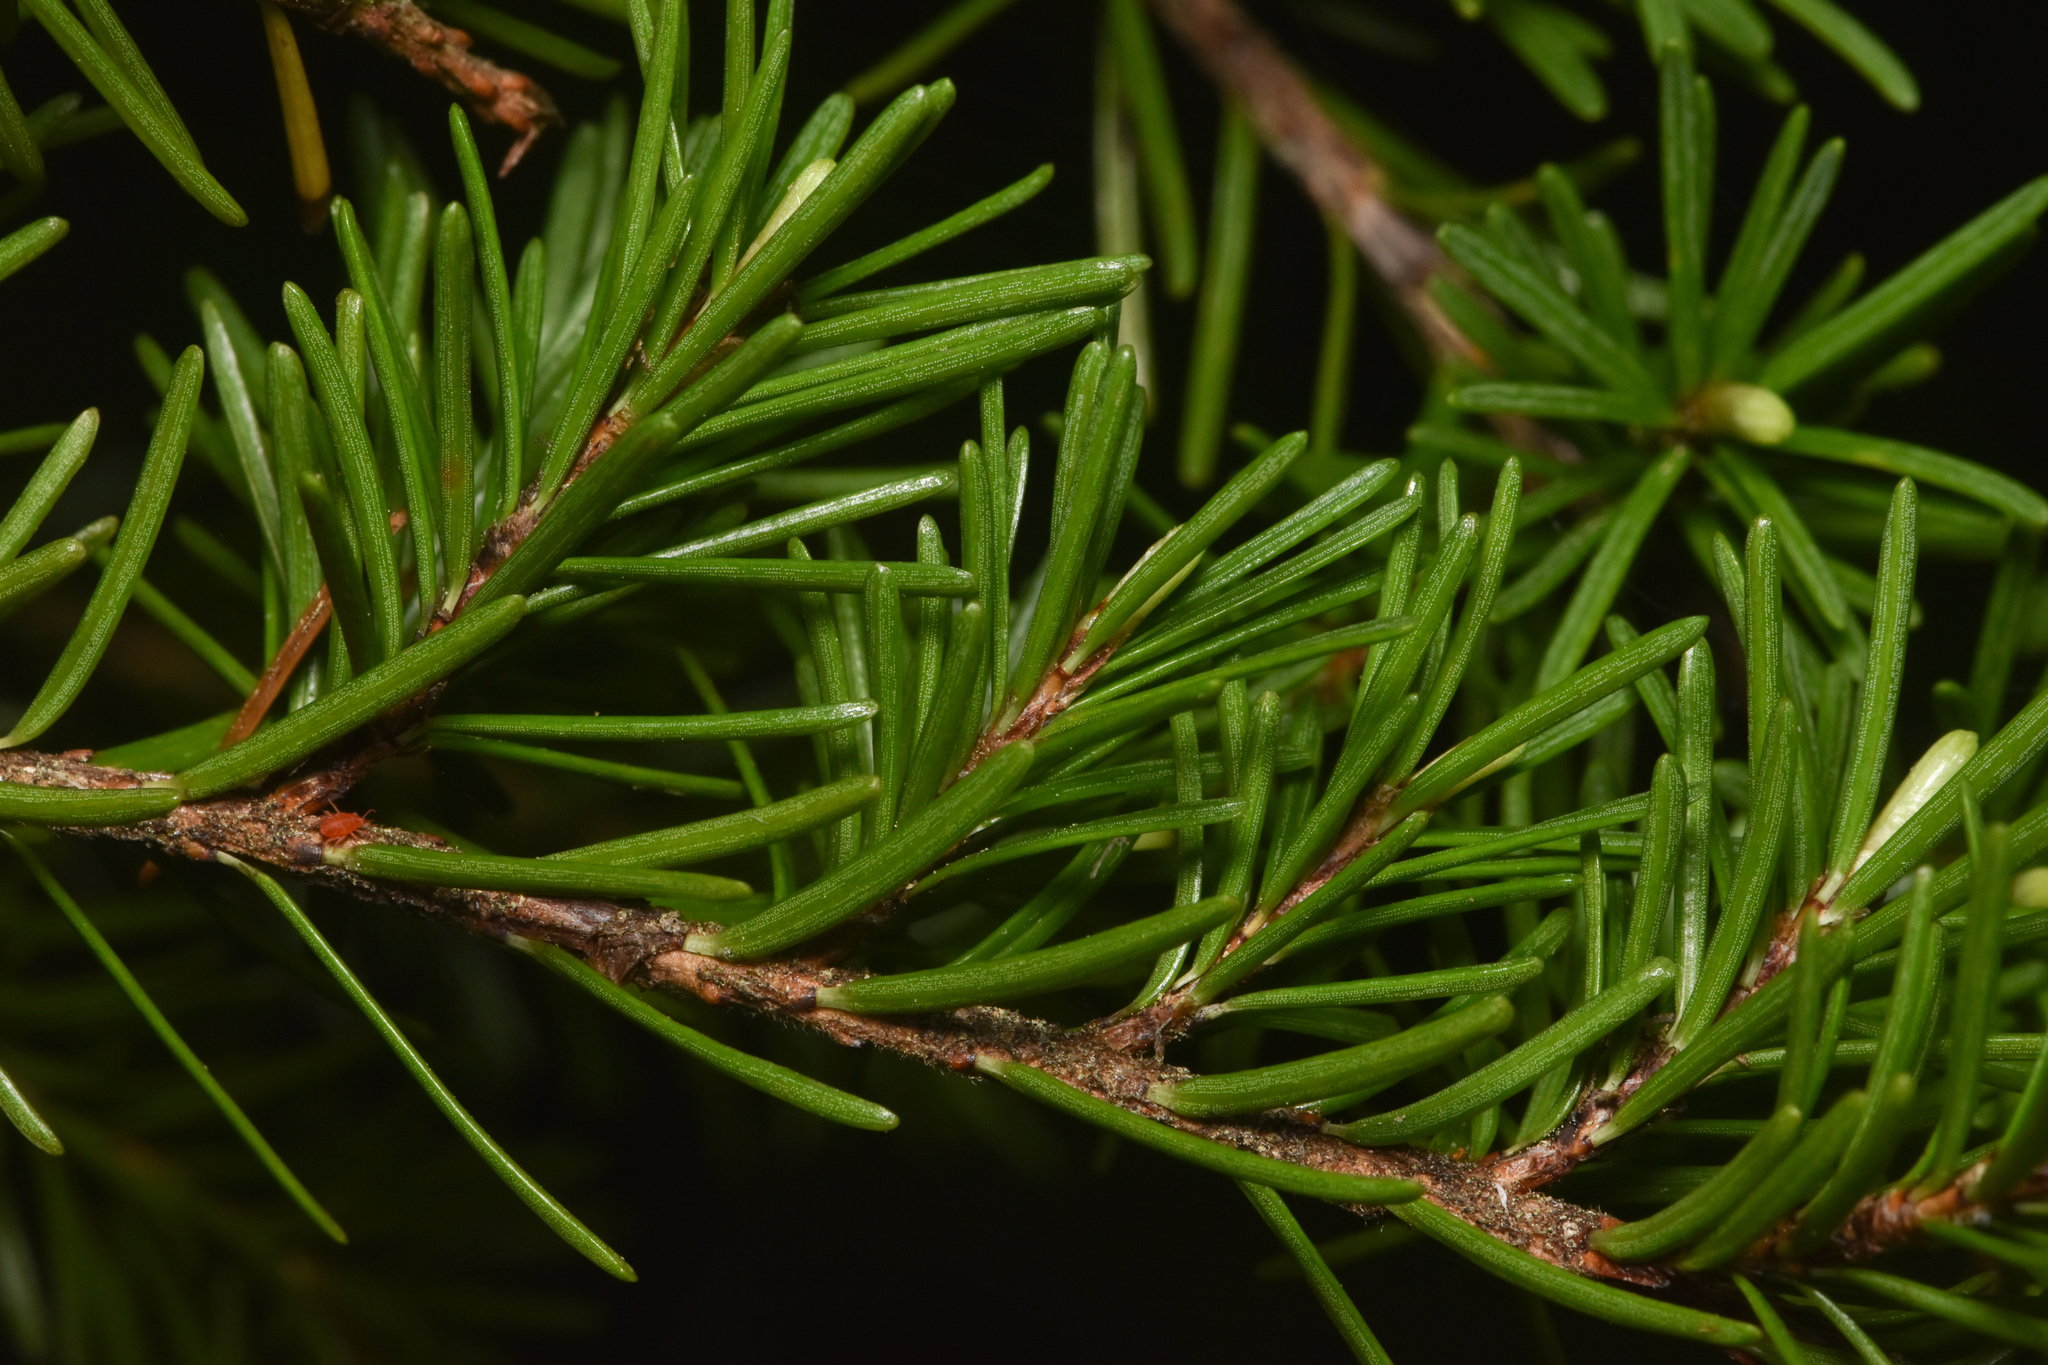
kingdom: Plantae
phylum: Tracheophyta
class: Pinopsida
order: Pinales
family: Pinaceae
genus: Tsuga
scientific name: Tsuga mertensiana
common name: Mountain hemlock
